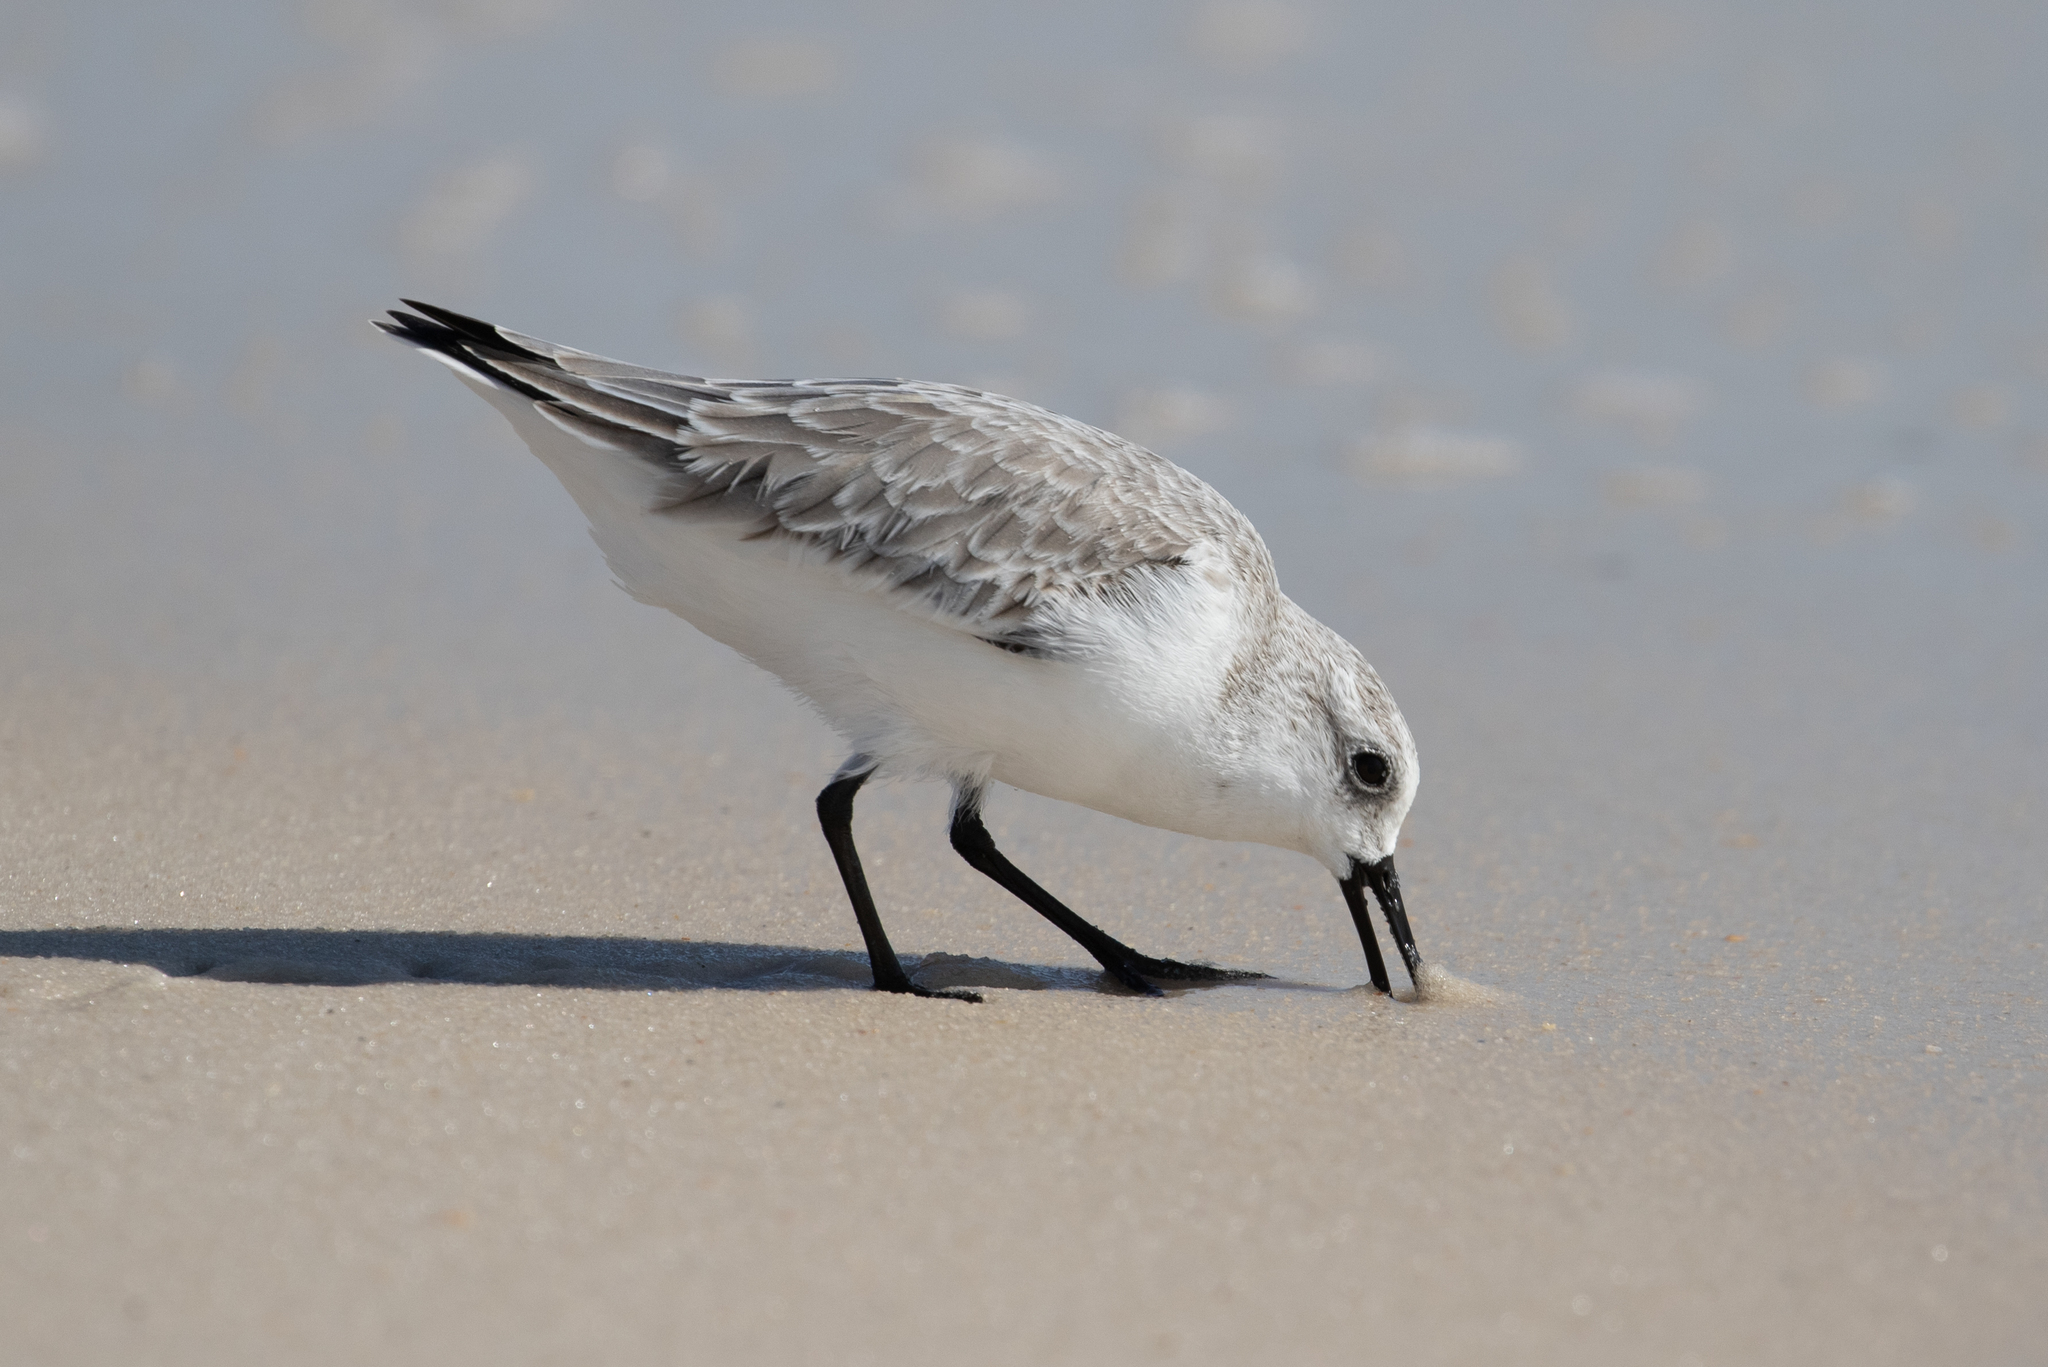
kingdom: Animalia
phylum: Chordata
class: Aves
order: Charadriiformes
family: Scolopacidae
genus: Calidris
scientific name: Calidris alba
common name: Sanderling
